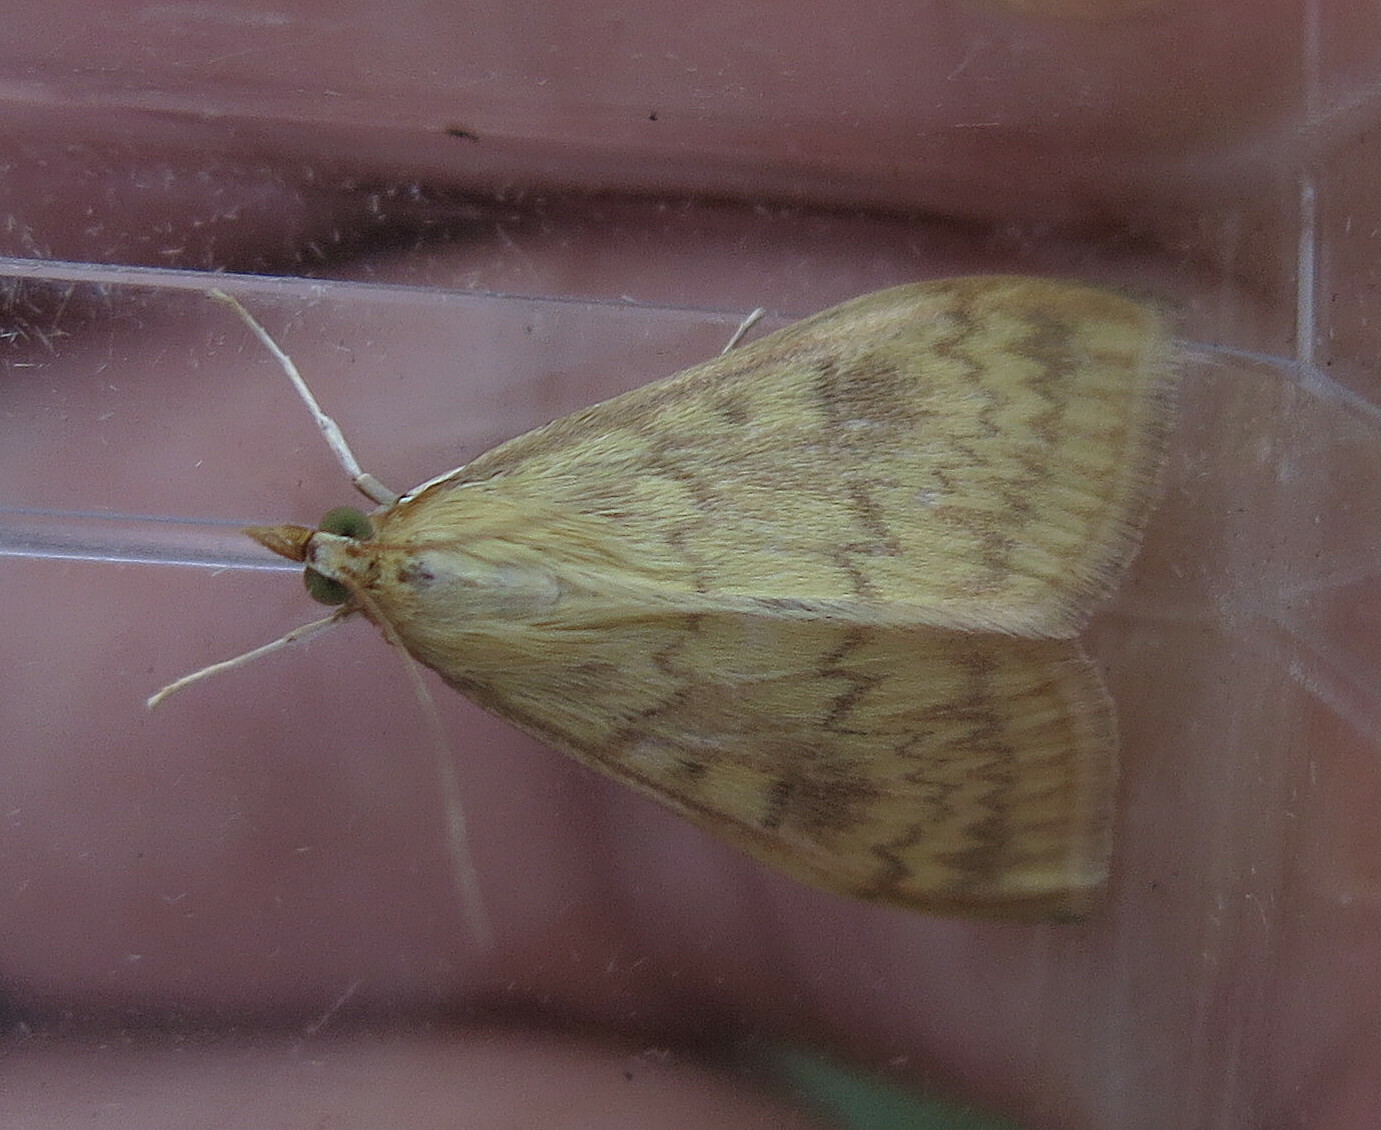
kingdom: Animalia
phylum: Arthropoda
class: Insecta
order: Lepidoptera
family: Crambidae
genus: Ostrinia
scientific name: Ostrinia nubilalis
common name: European corn borer
